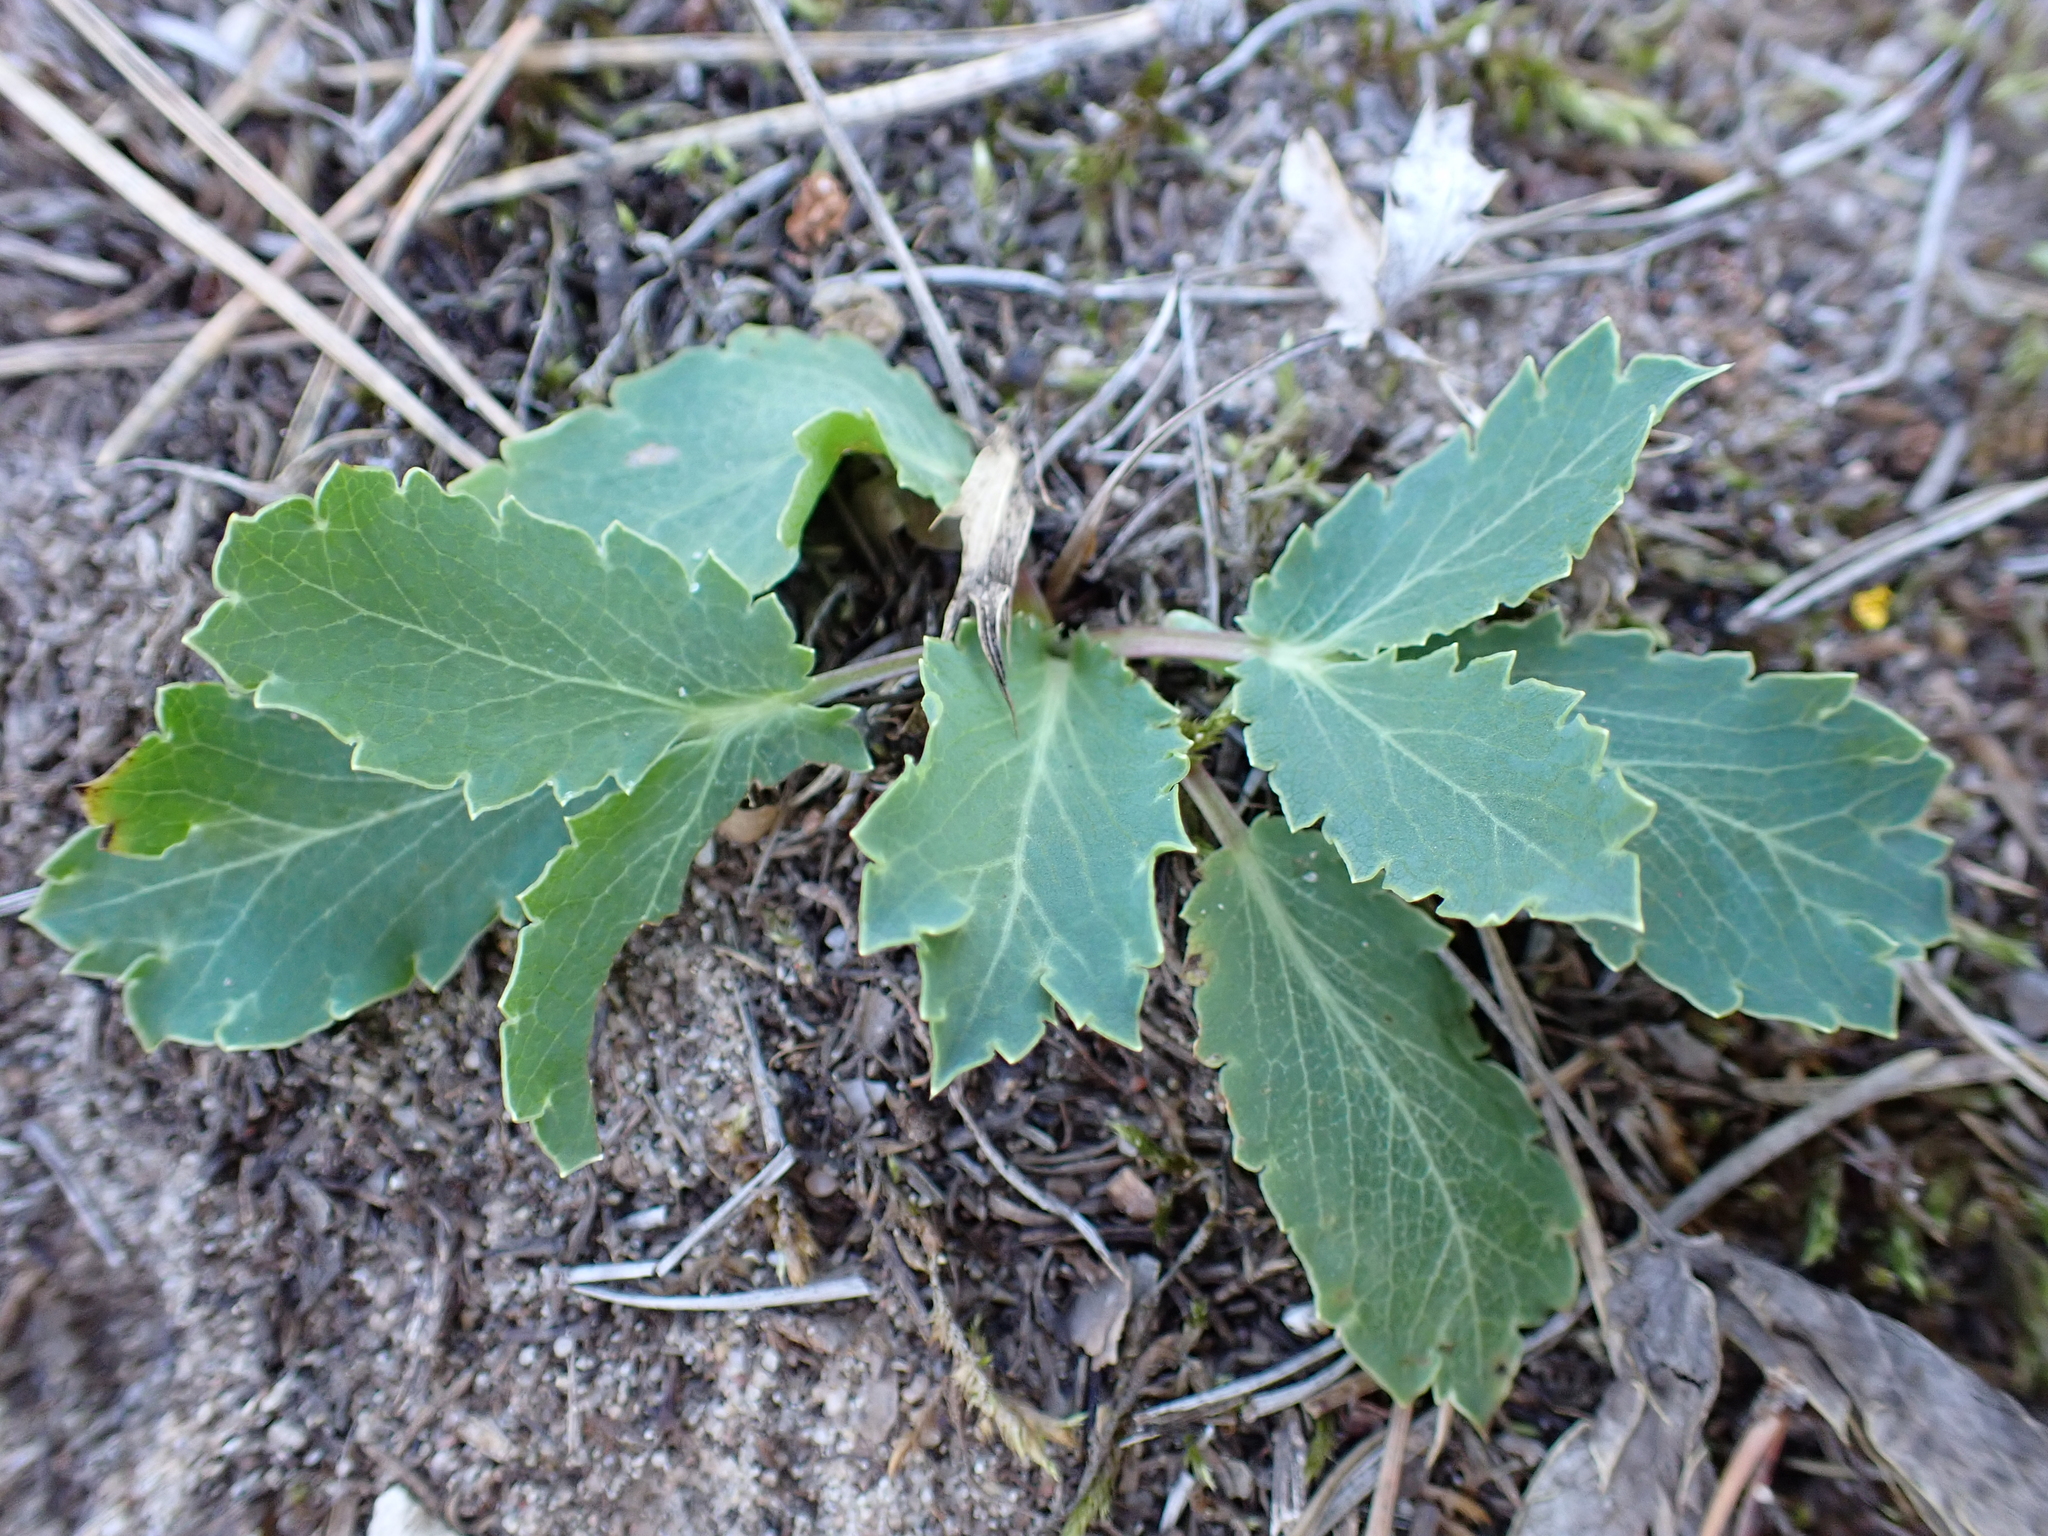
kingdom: Plantae
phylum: Tracheophyta
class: Magnoliopsida
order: Apiales
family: Apiaceae
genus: Eryngium
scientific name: Eryngium campestre
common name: Field eryngo
